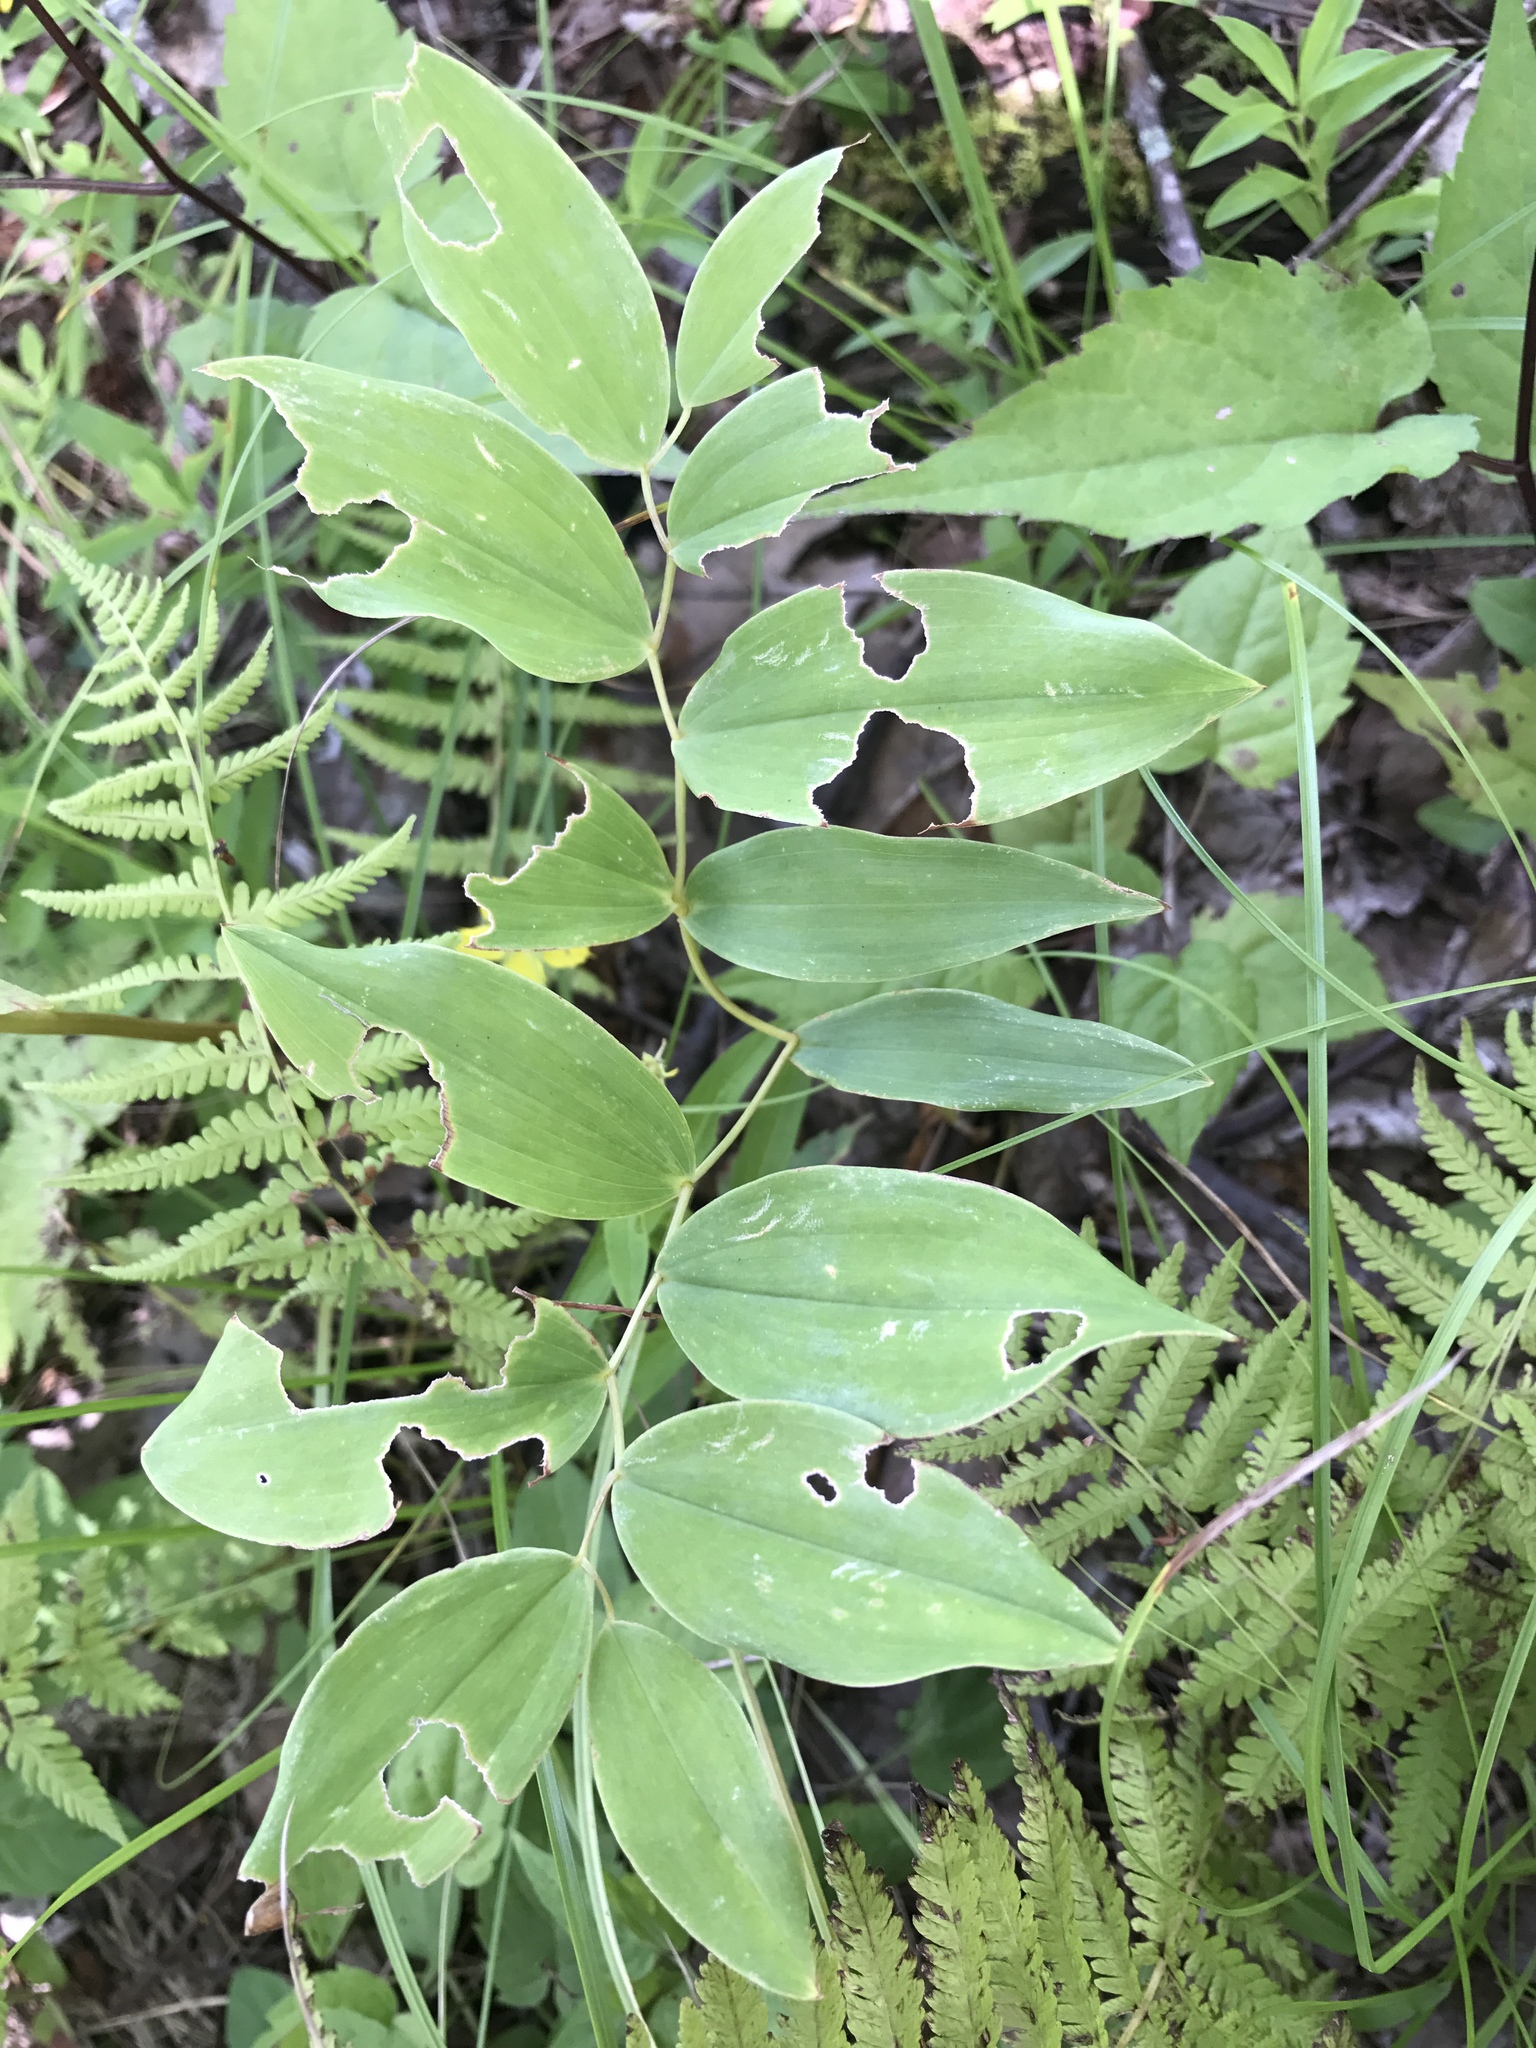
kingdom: Plantae
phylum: Tracheophyta
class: Liliopsida
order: Liliales
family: Colchicaceae
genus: Uvularia
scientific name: Uvularia sessilifolia
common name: Straw-lily
